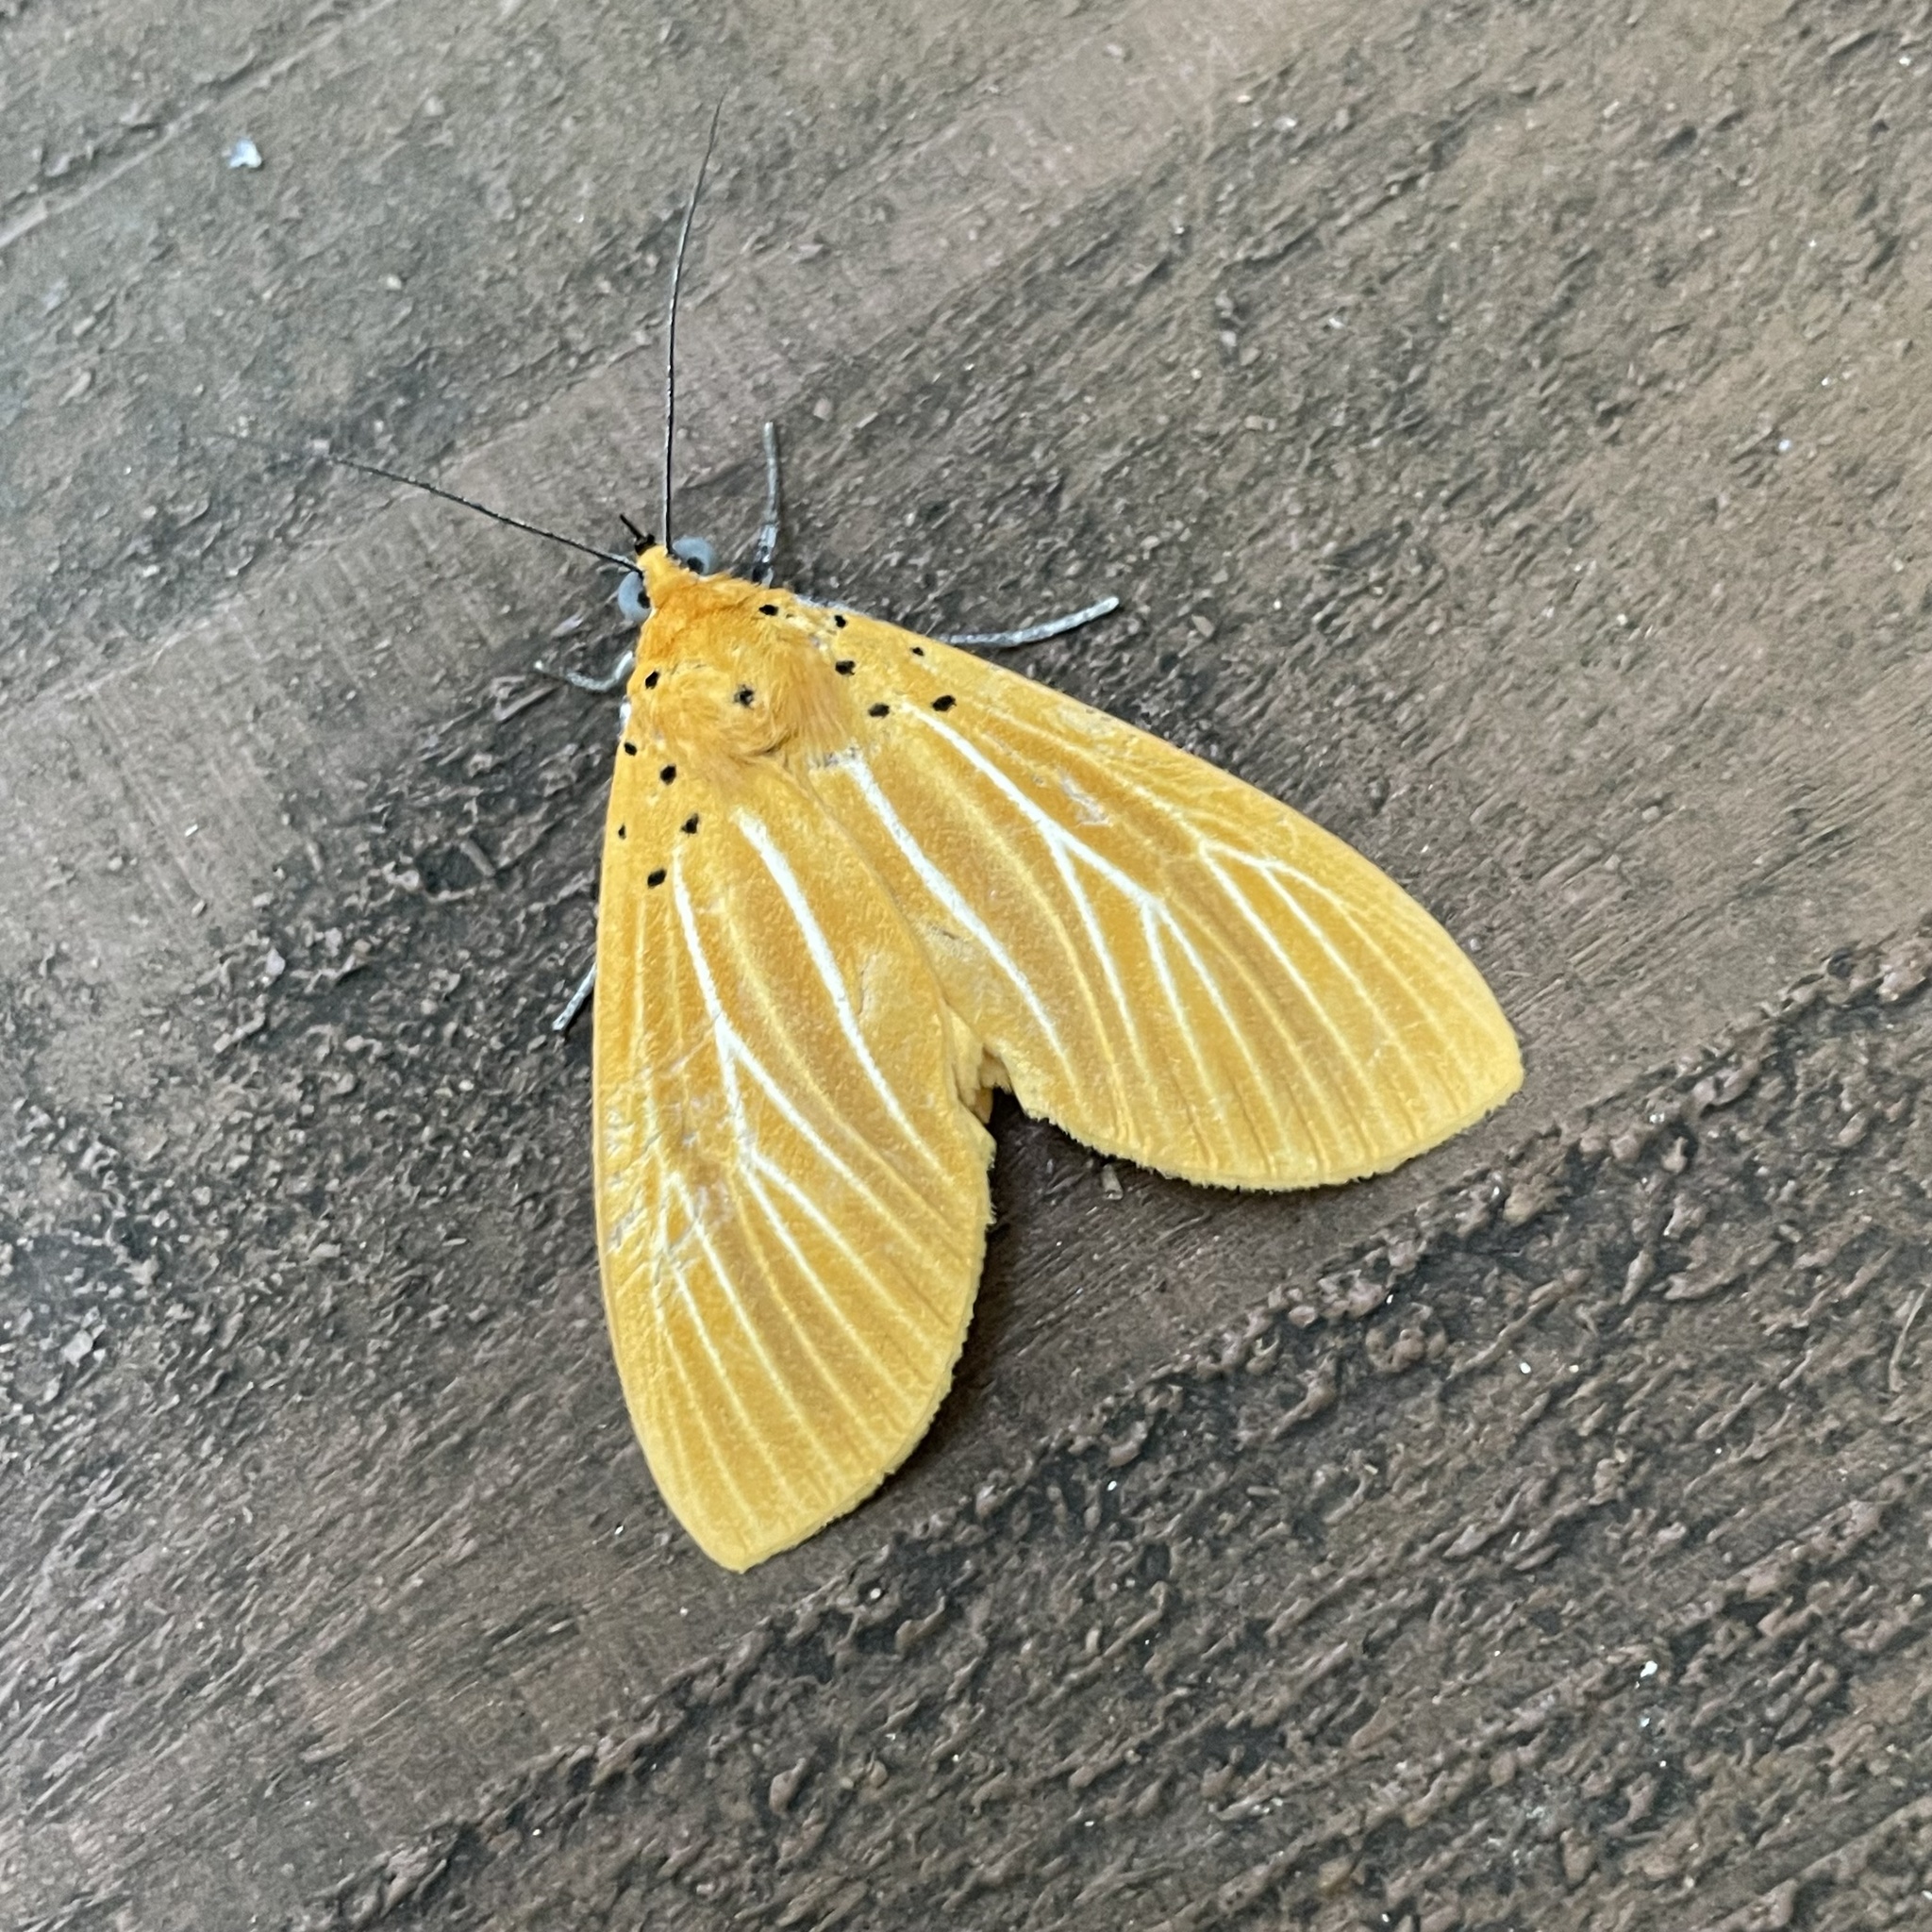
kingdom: Animalia
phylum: Arthropoda
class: Insecta
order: Lepidoptera
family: Erebidae
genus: Asota
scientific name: Asota egens
